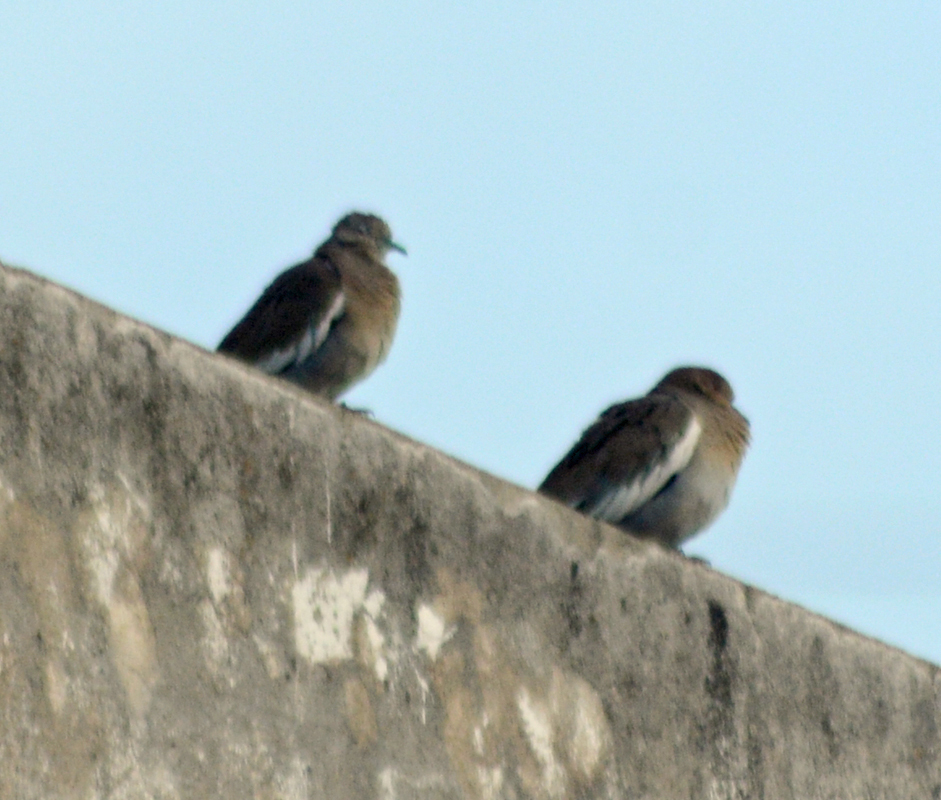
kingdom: Animalia
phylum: Chordata
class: Aves
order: Columbiformes
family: Columbidae
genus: Zenaida
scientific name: Zenaida asiatica
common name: White-winged dove
